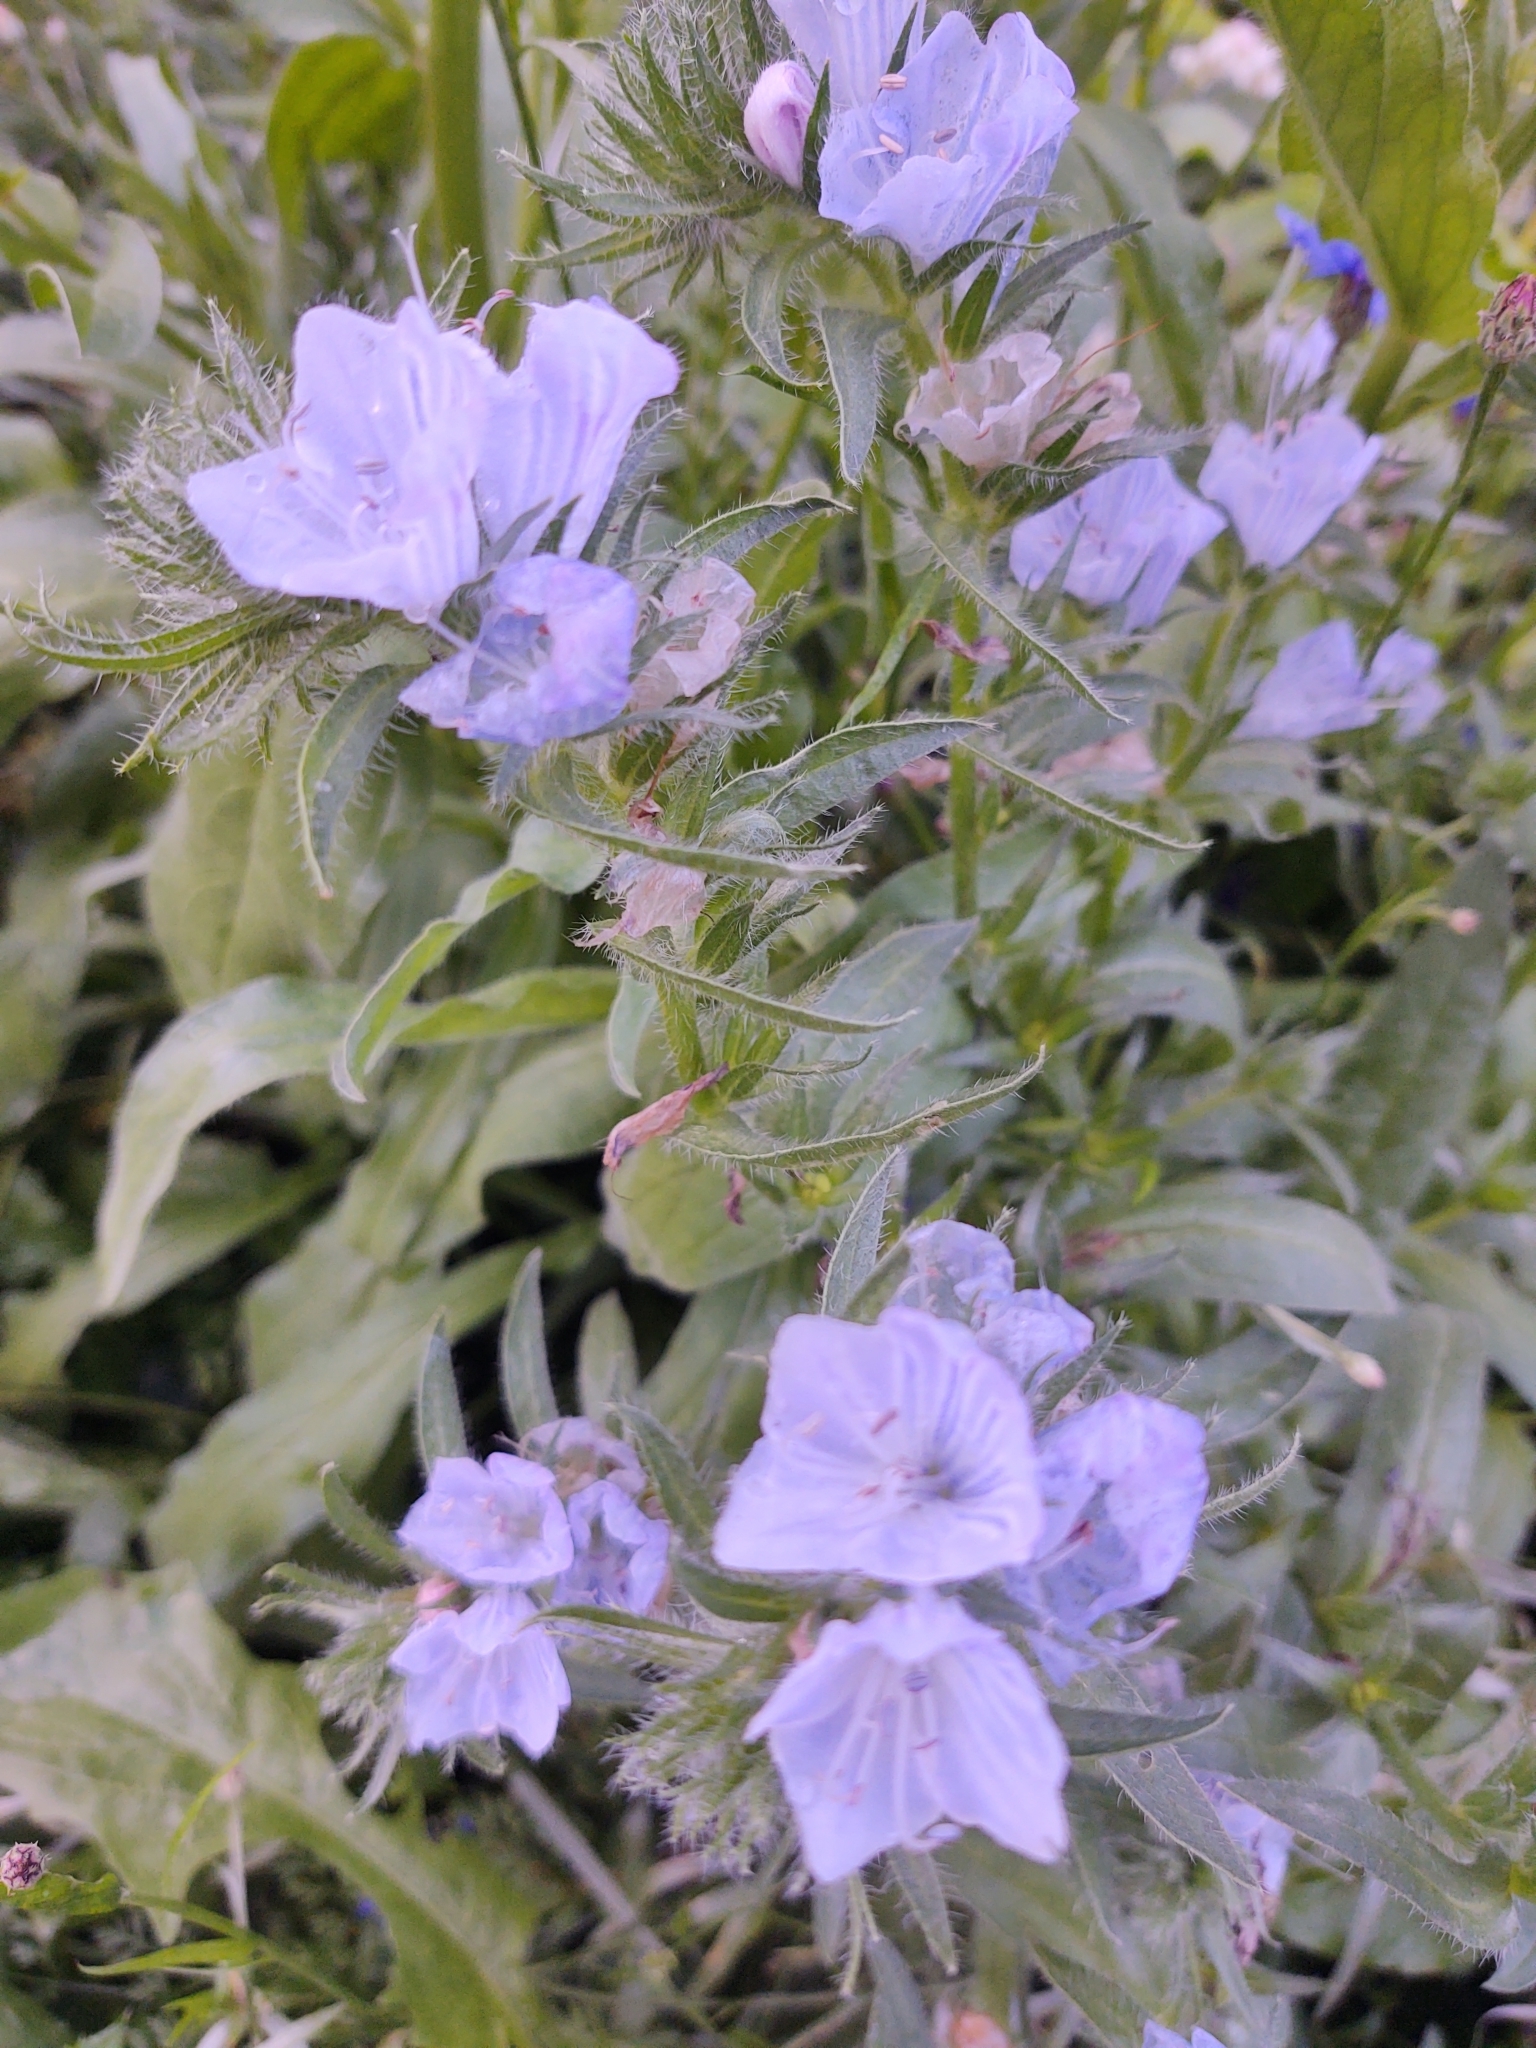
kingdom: Plantae
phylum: Tracheophyta
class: Magnoliopsida
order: Boraginales
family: Boraginaceae
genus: Echium
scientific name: Echium plantagineum
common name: Purple viper's-bugloss
